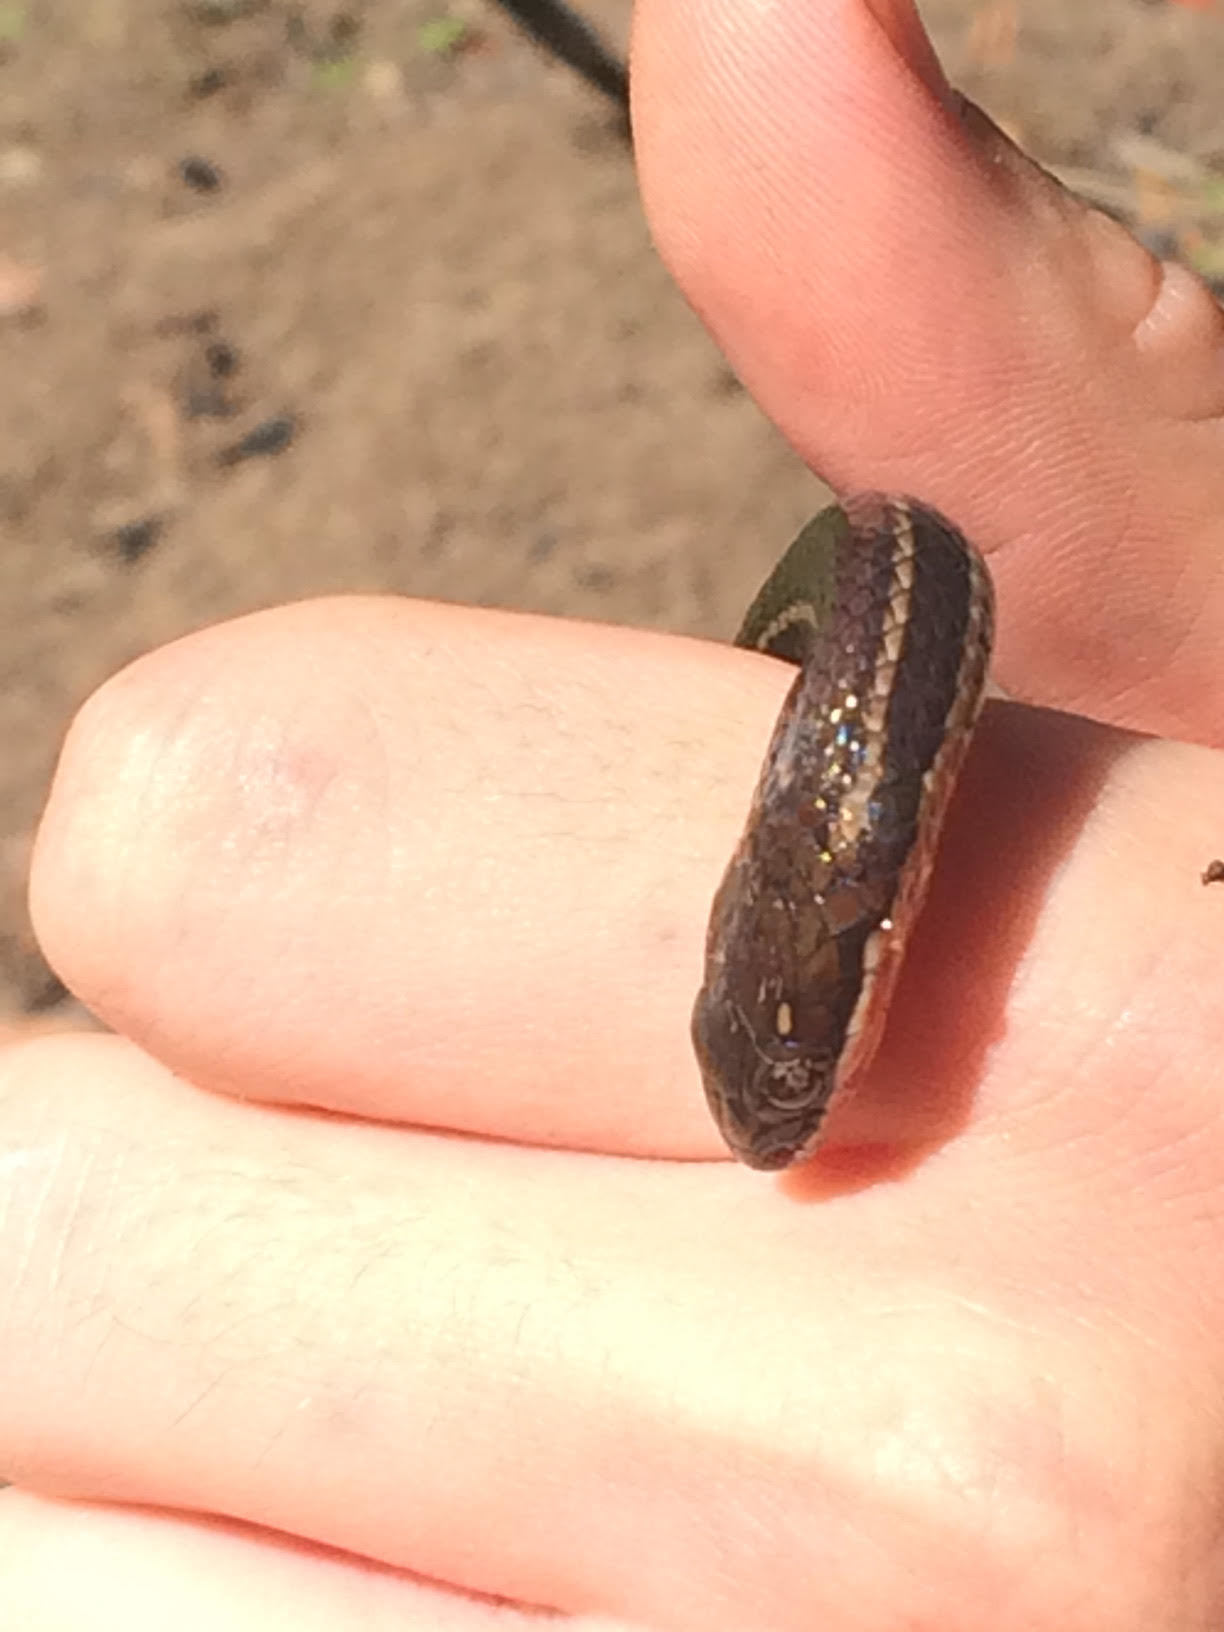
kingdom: Animalia
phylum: Chordata
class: Squamata
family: Colubridae
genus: Urotheca
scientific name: Urotheca guentheri
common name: Striped glasstail
